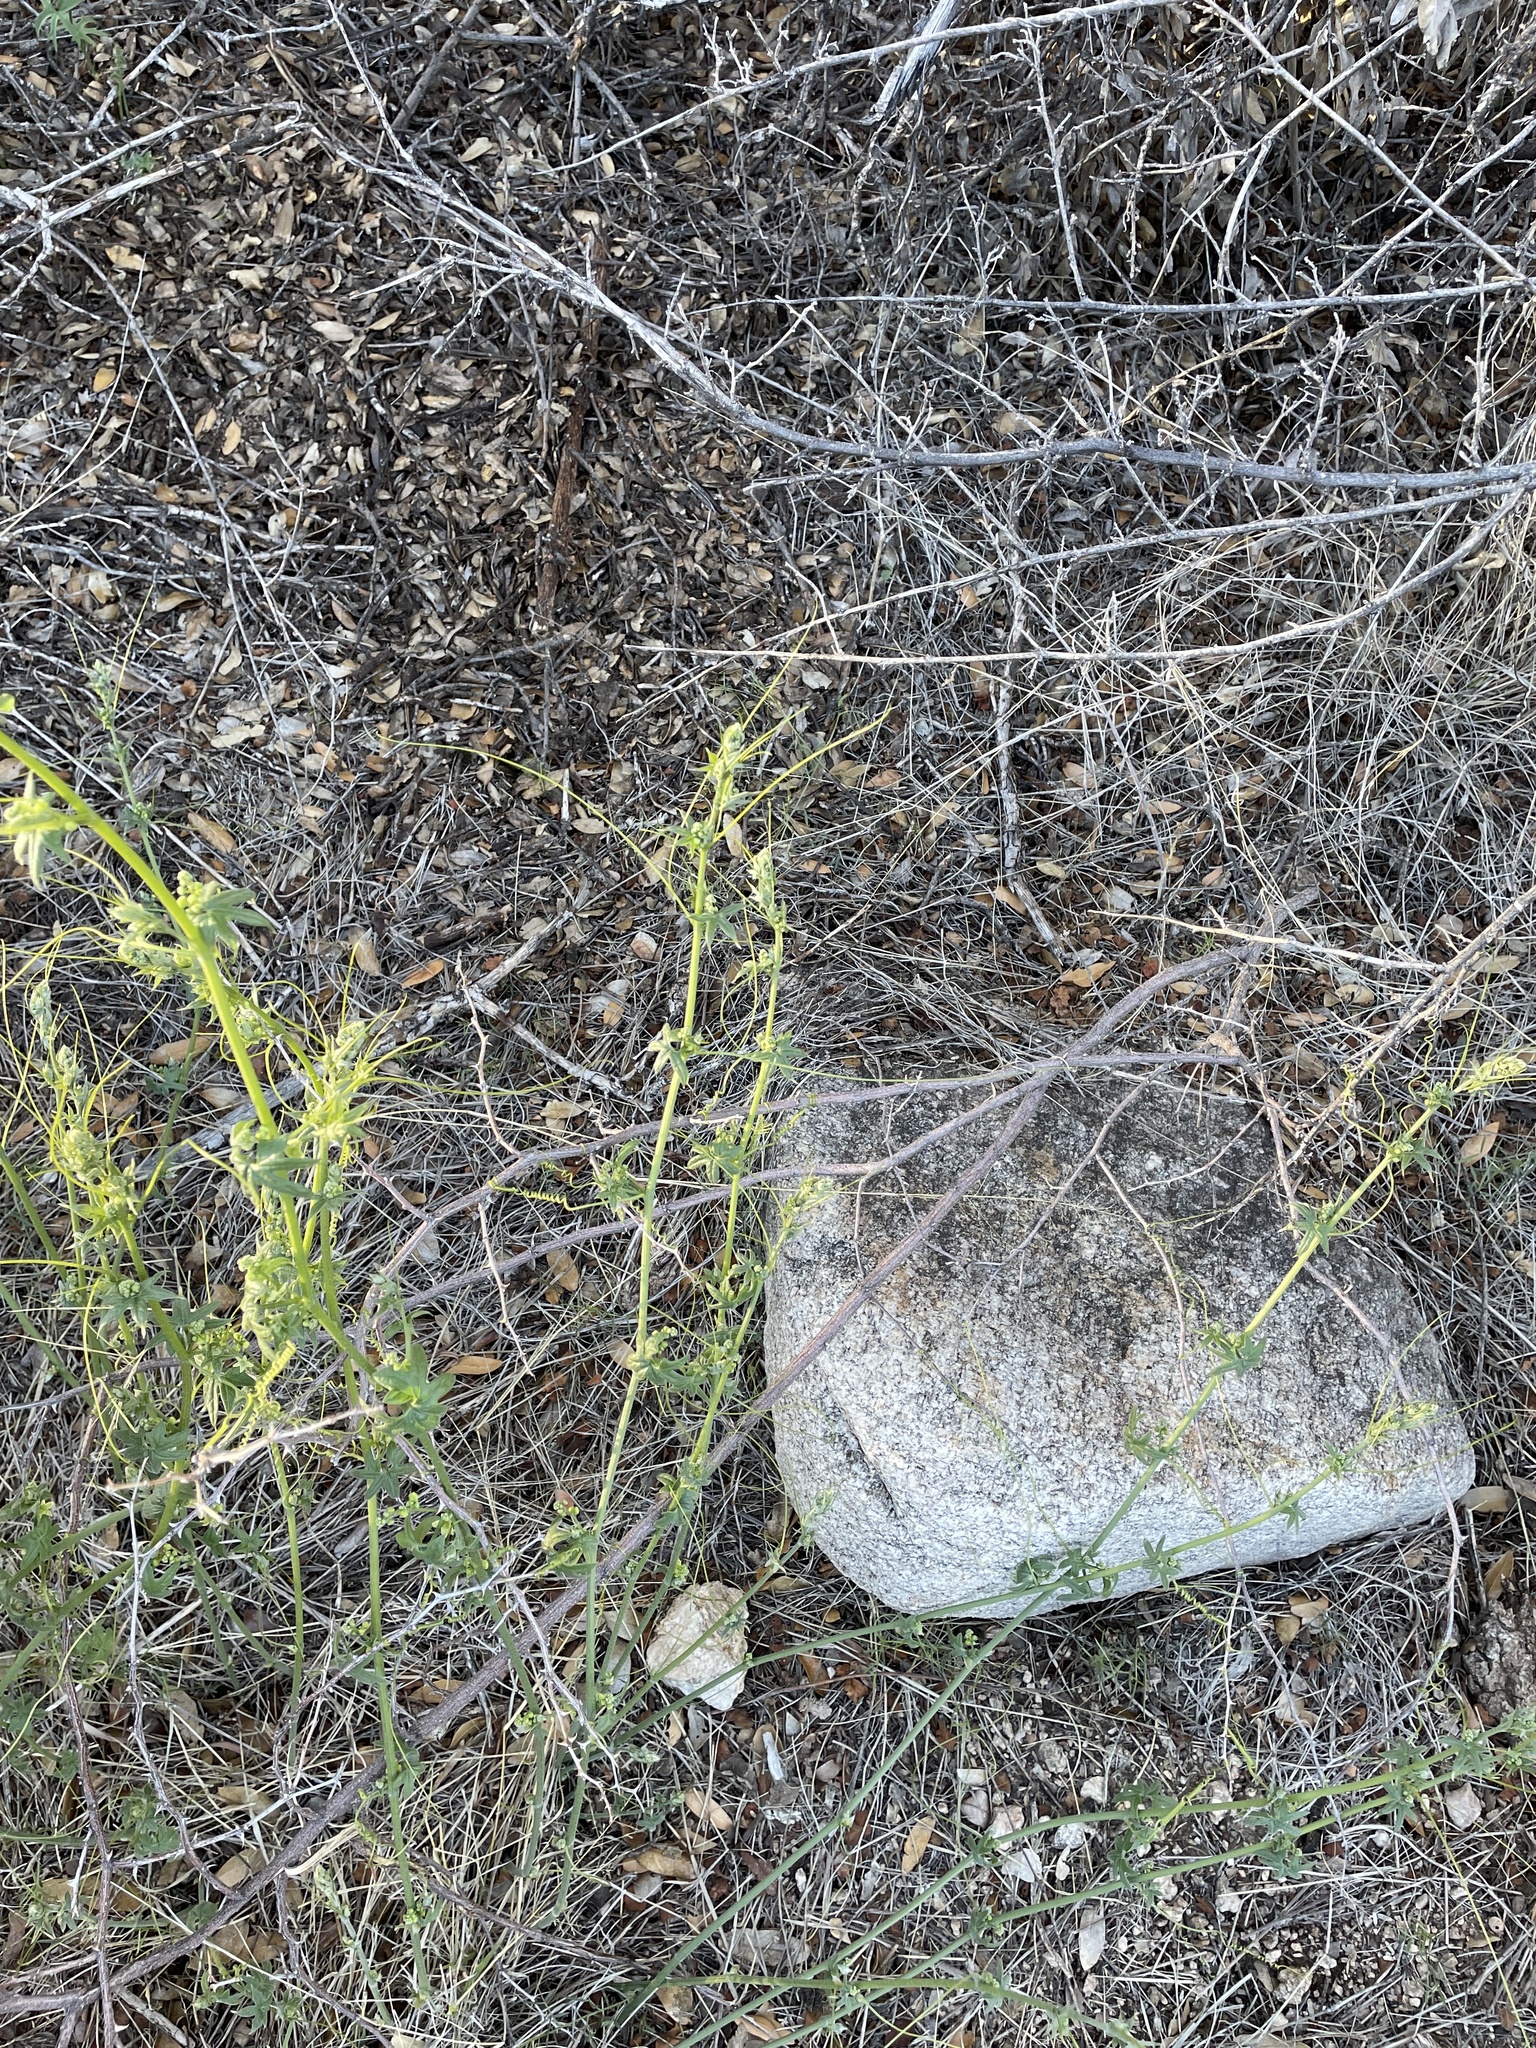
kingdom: Plantae
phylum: Tracheophyta
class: Magnoliopsida
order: Cucurbitales
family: Cucurbitaceae
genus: Marah
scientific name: Marah gilensis
